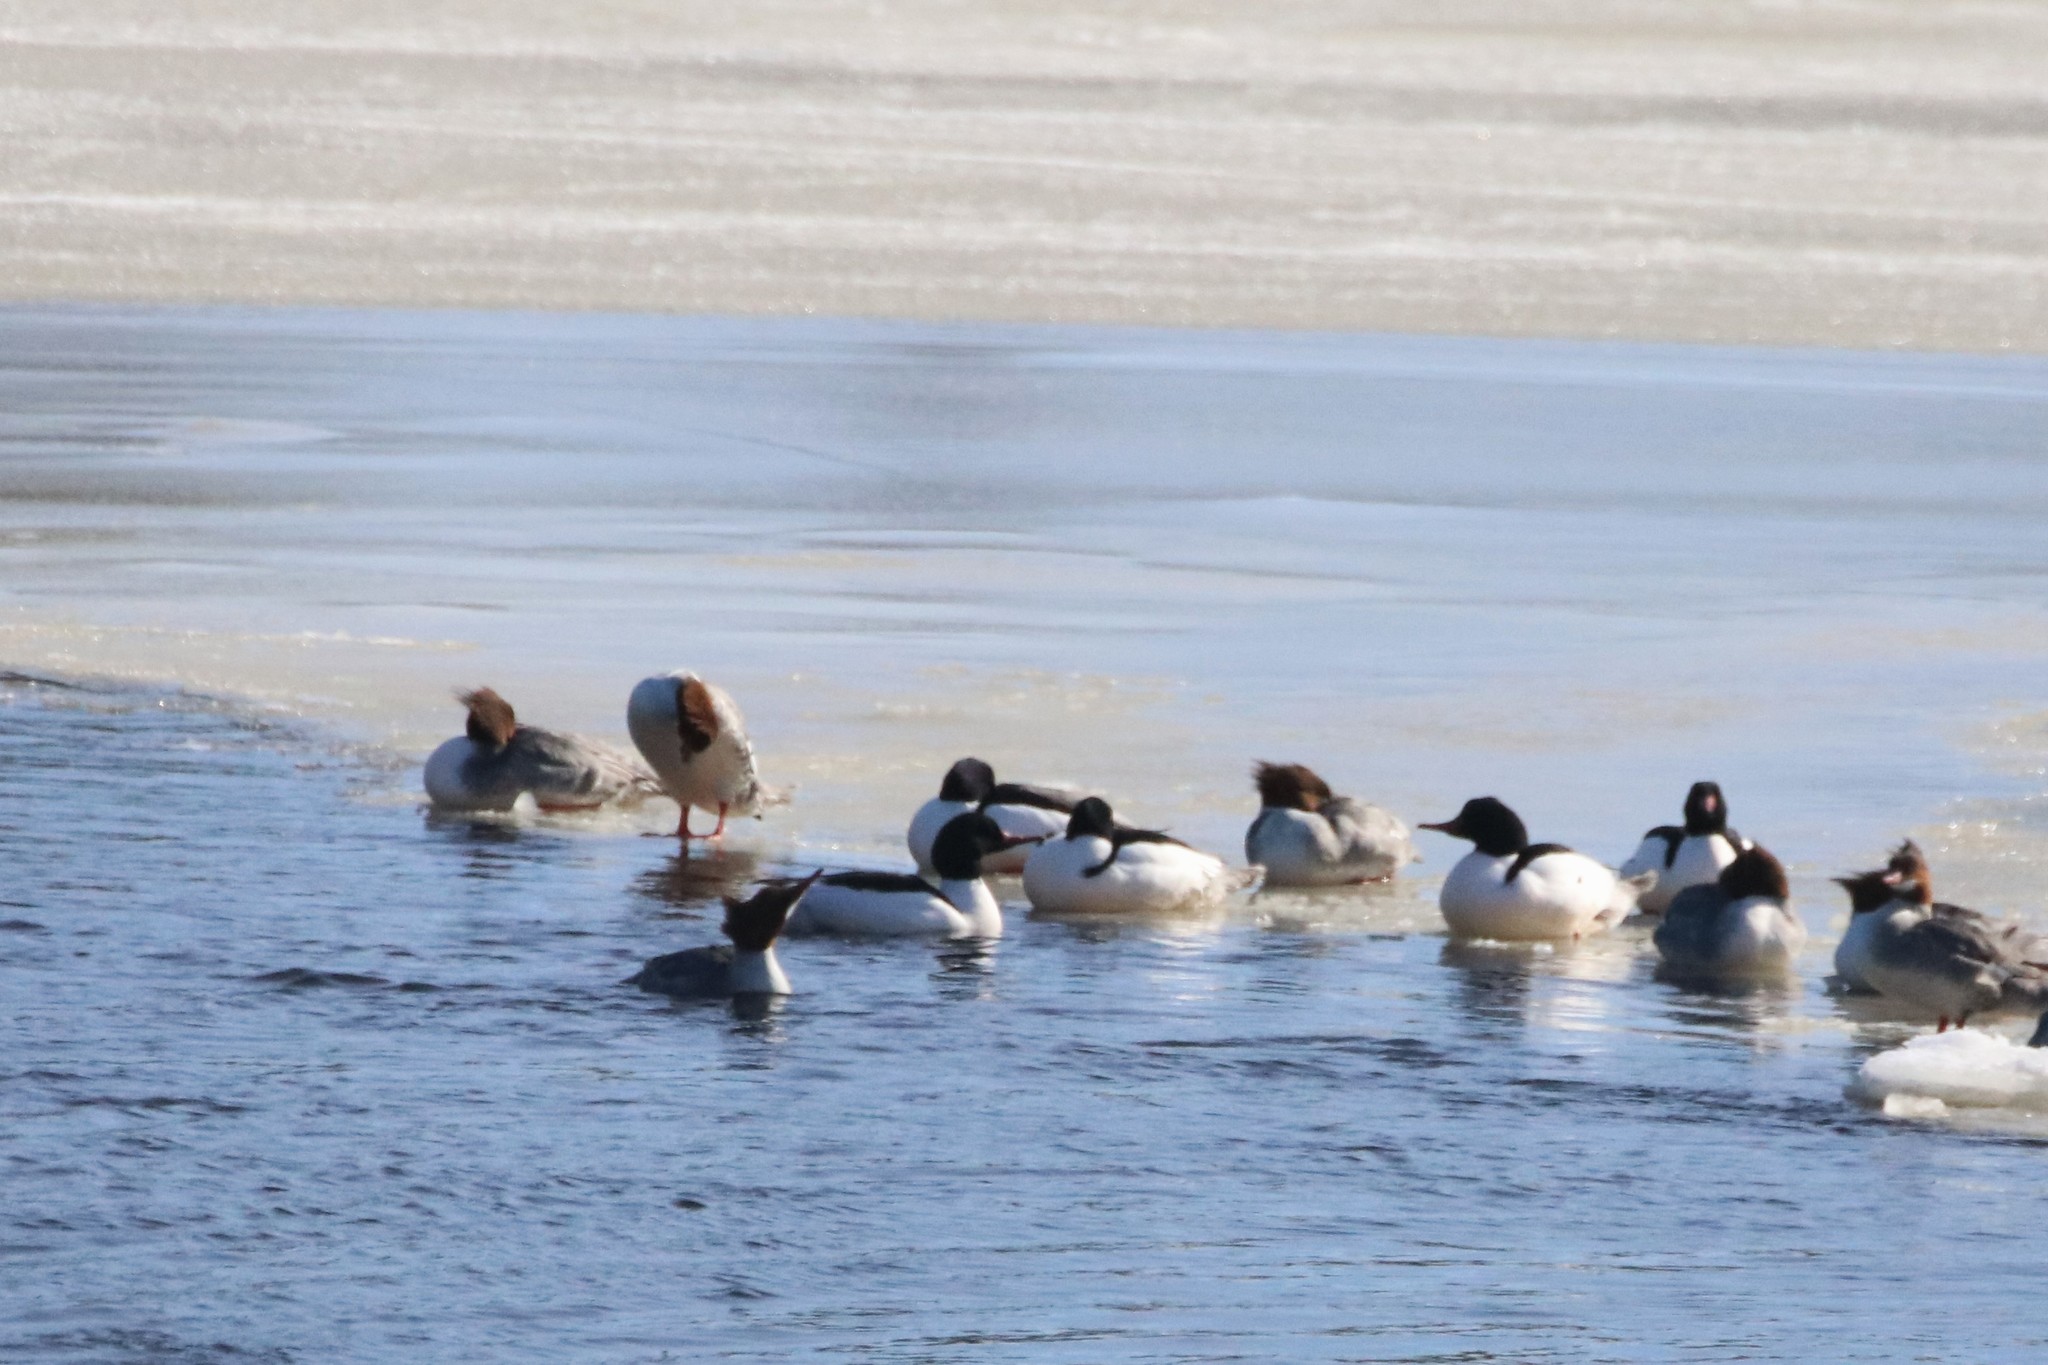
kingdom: Animalia
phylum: Chordata
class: Aves
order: Anseriformes
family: Anatidae
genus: Mergus
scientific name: Mergus merganser
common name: Common merganser
